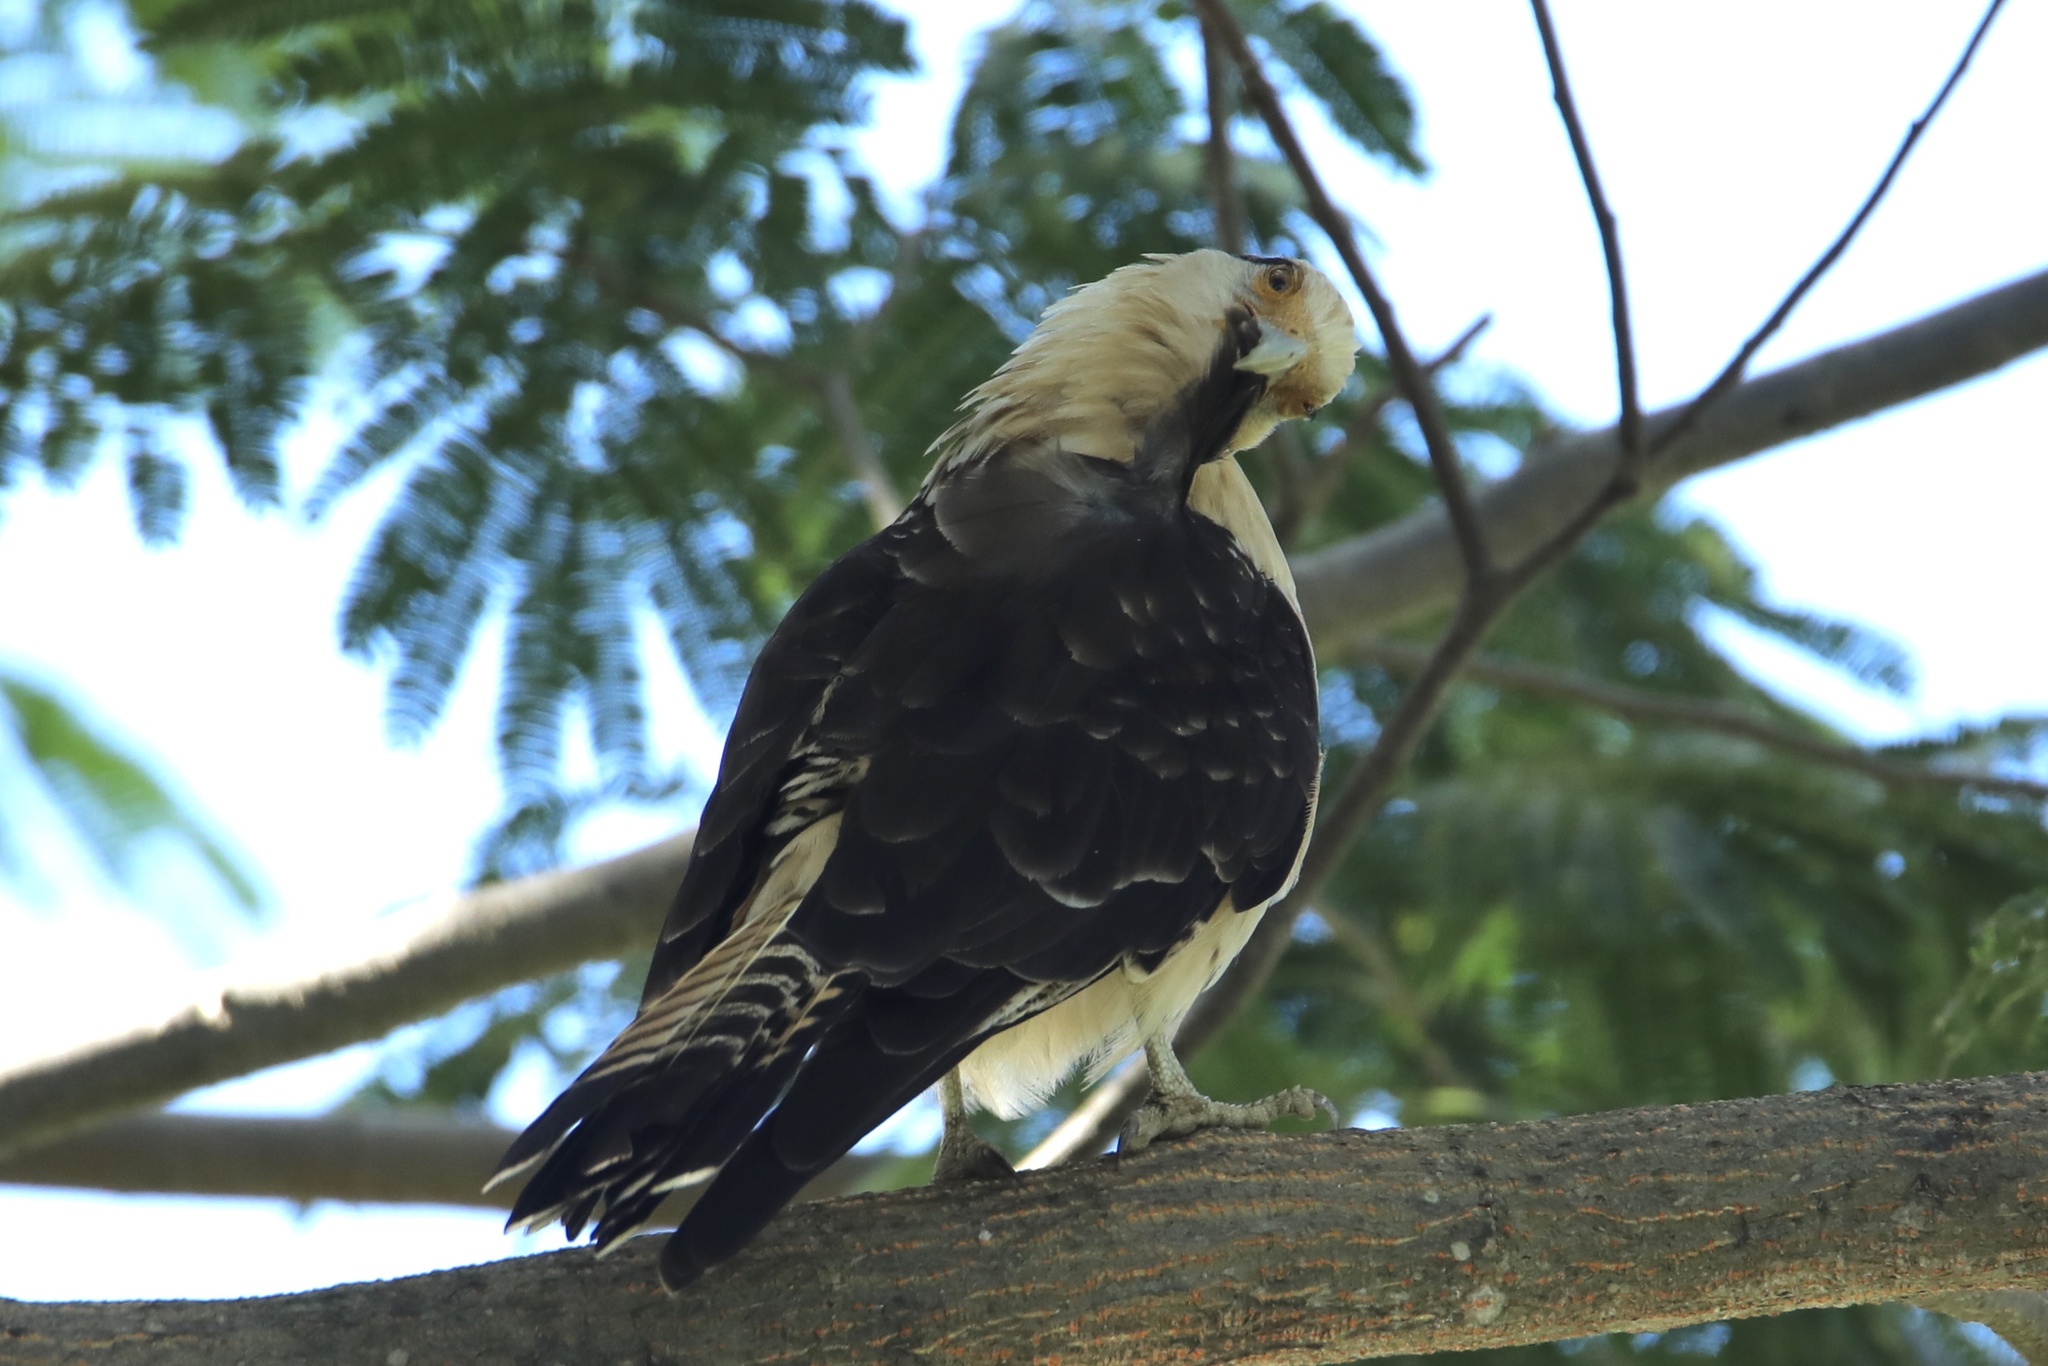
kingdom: Animalia
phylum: Chordata
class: Aves
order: Falconiformes
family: Falconidae
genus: Daptrius
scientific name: Daptrius
